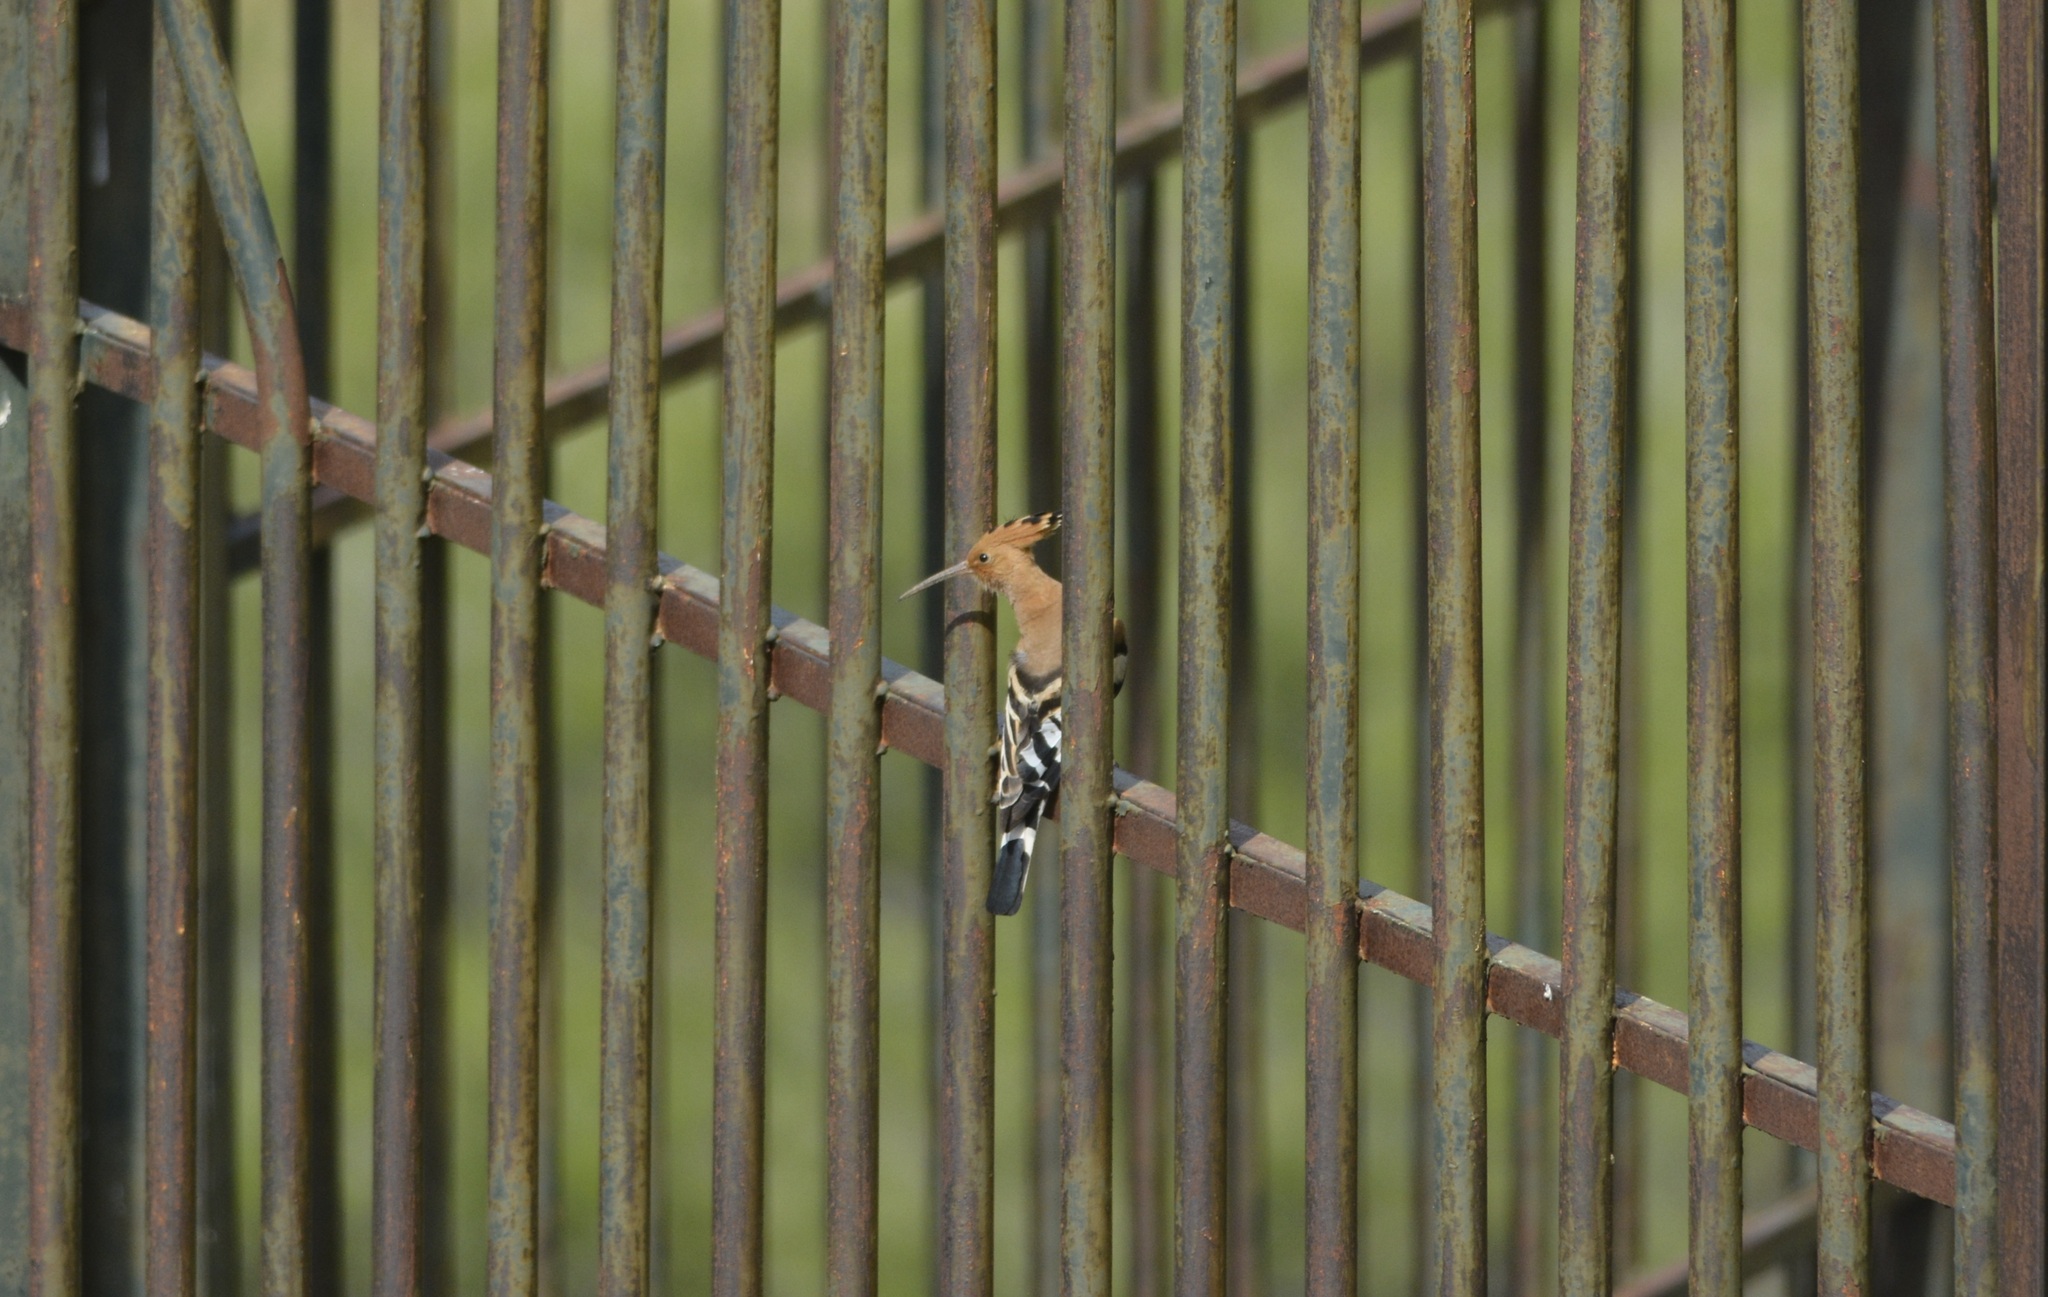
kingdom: Animalia
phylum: Chordata
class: Aves
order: Bucerotiformes
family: Upupidae
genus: Upupa
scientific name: Upupa epops
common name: Eurasian hoopoe
